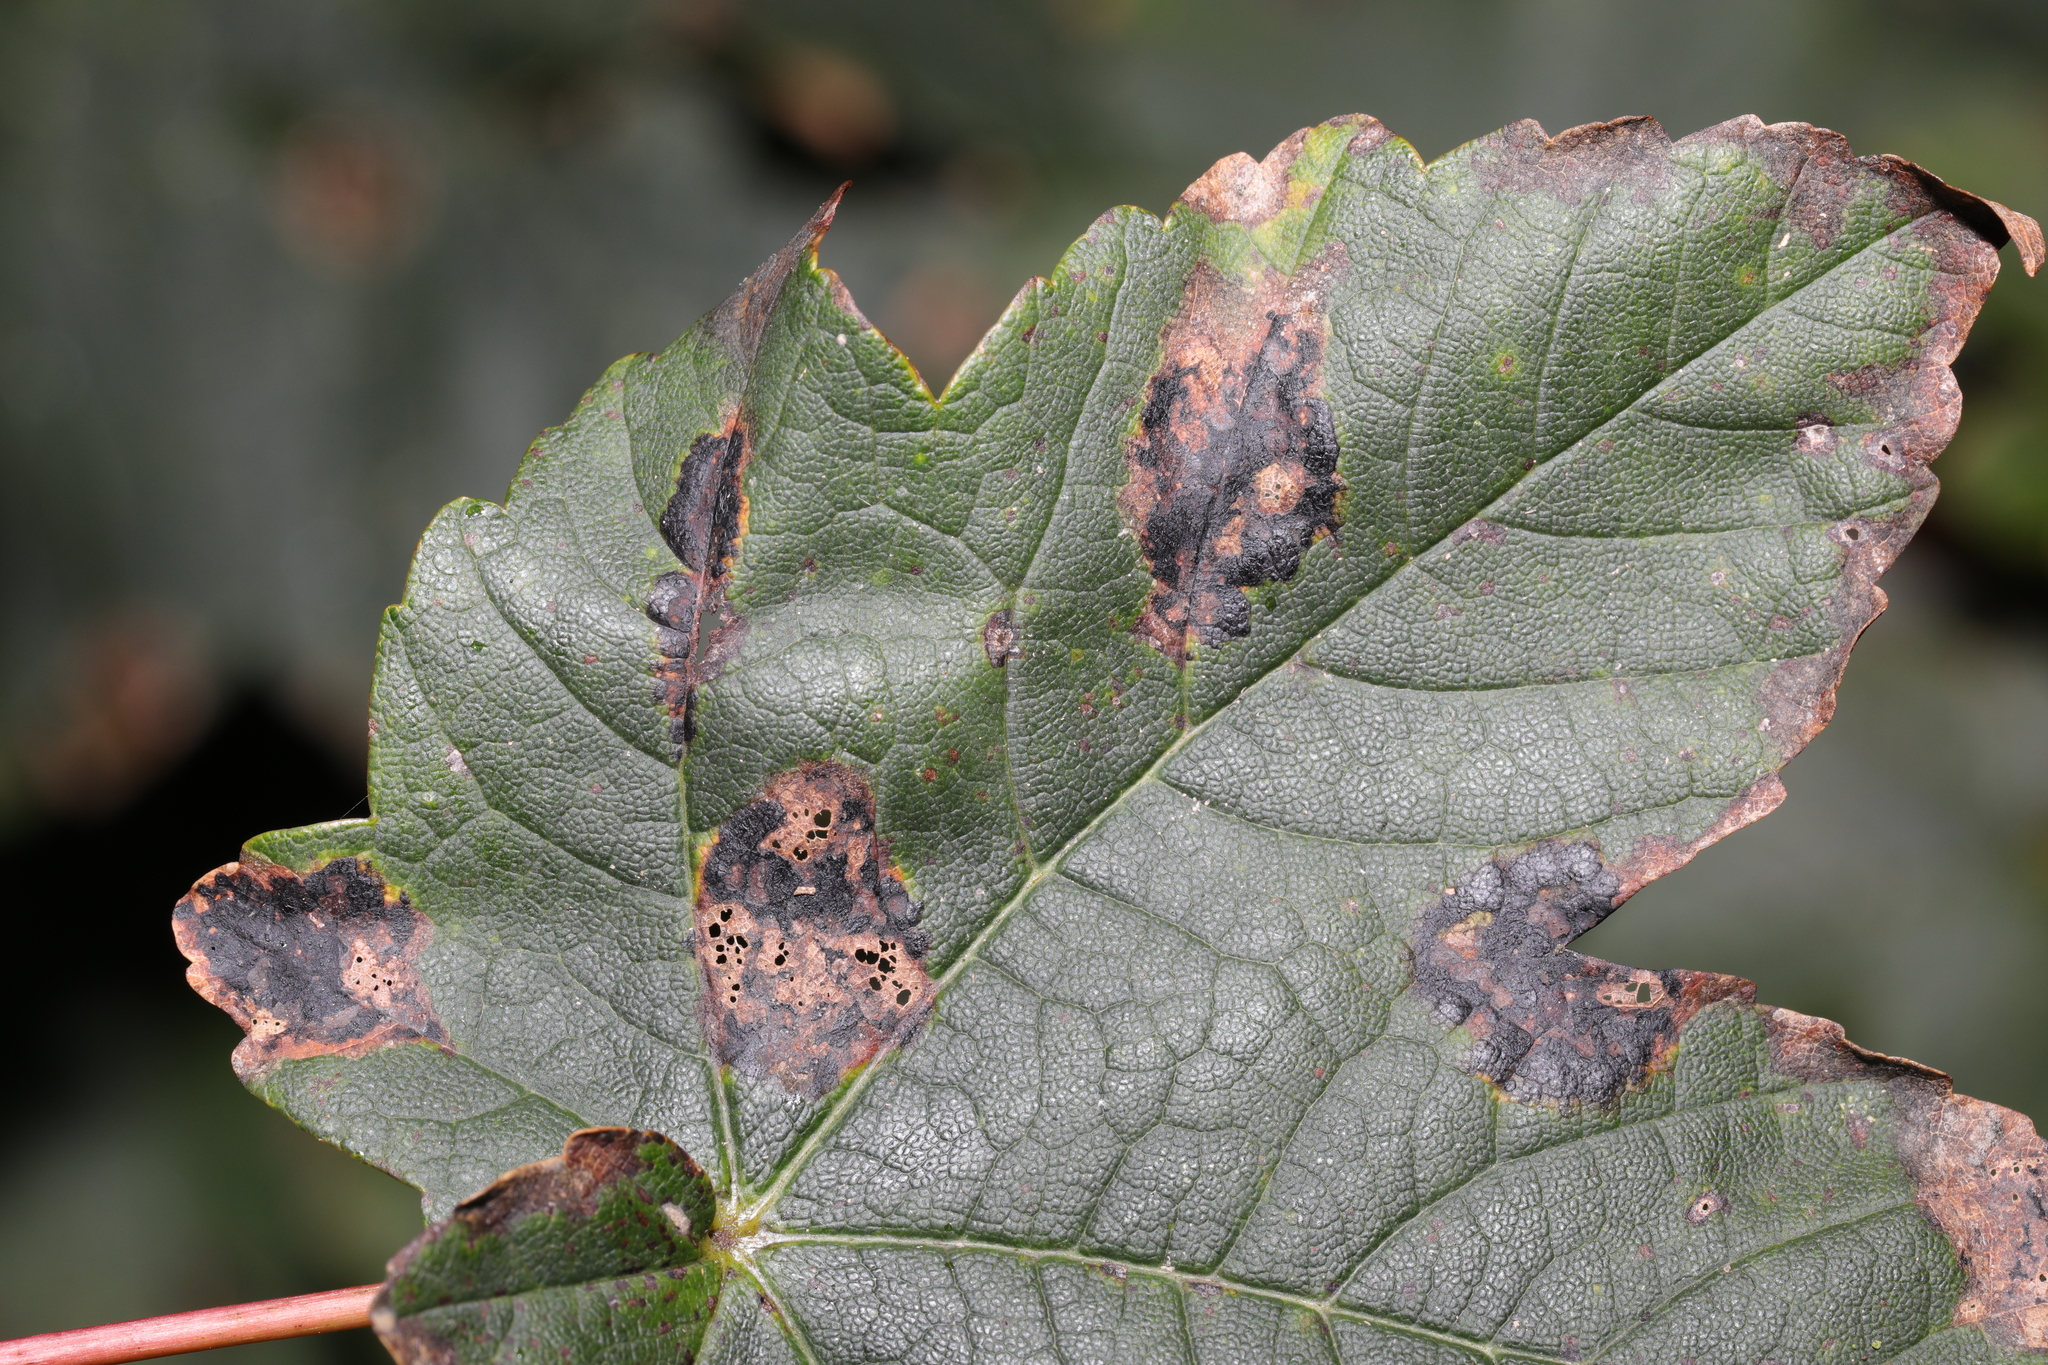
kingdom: Fungi
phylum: Ascomycota
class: Leotiomycetes
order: Rhytismatales
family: Rhytismataceae
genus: Rhytisma
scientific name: Rhytisma acerinum
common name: European tar spot
